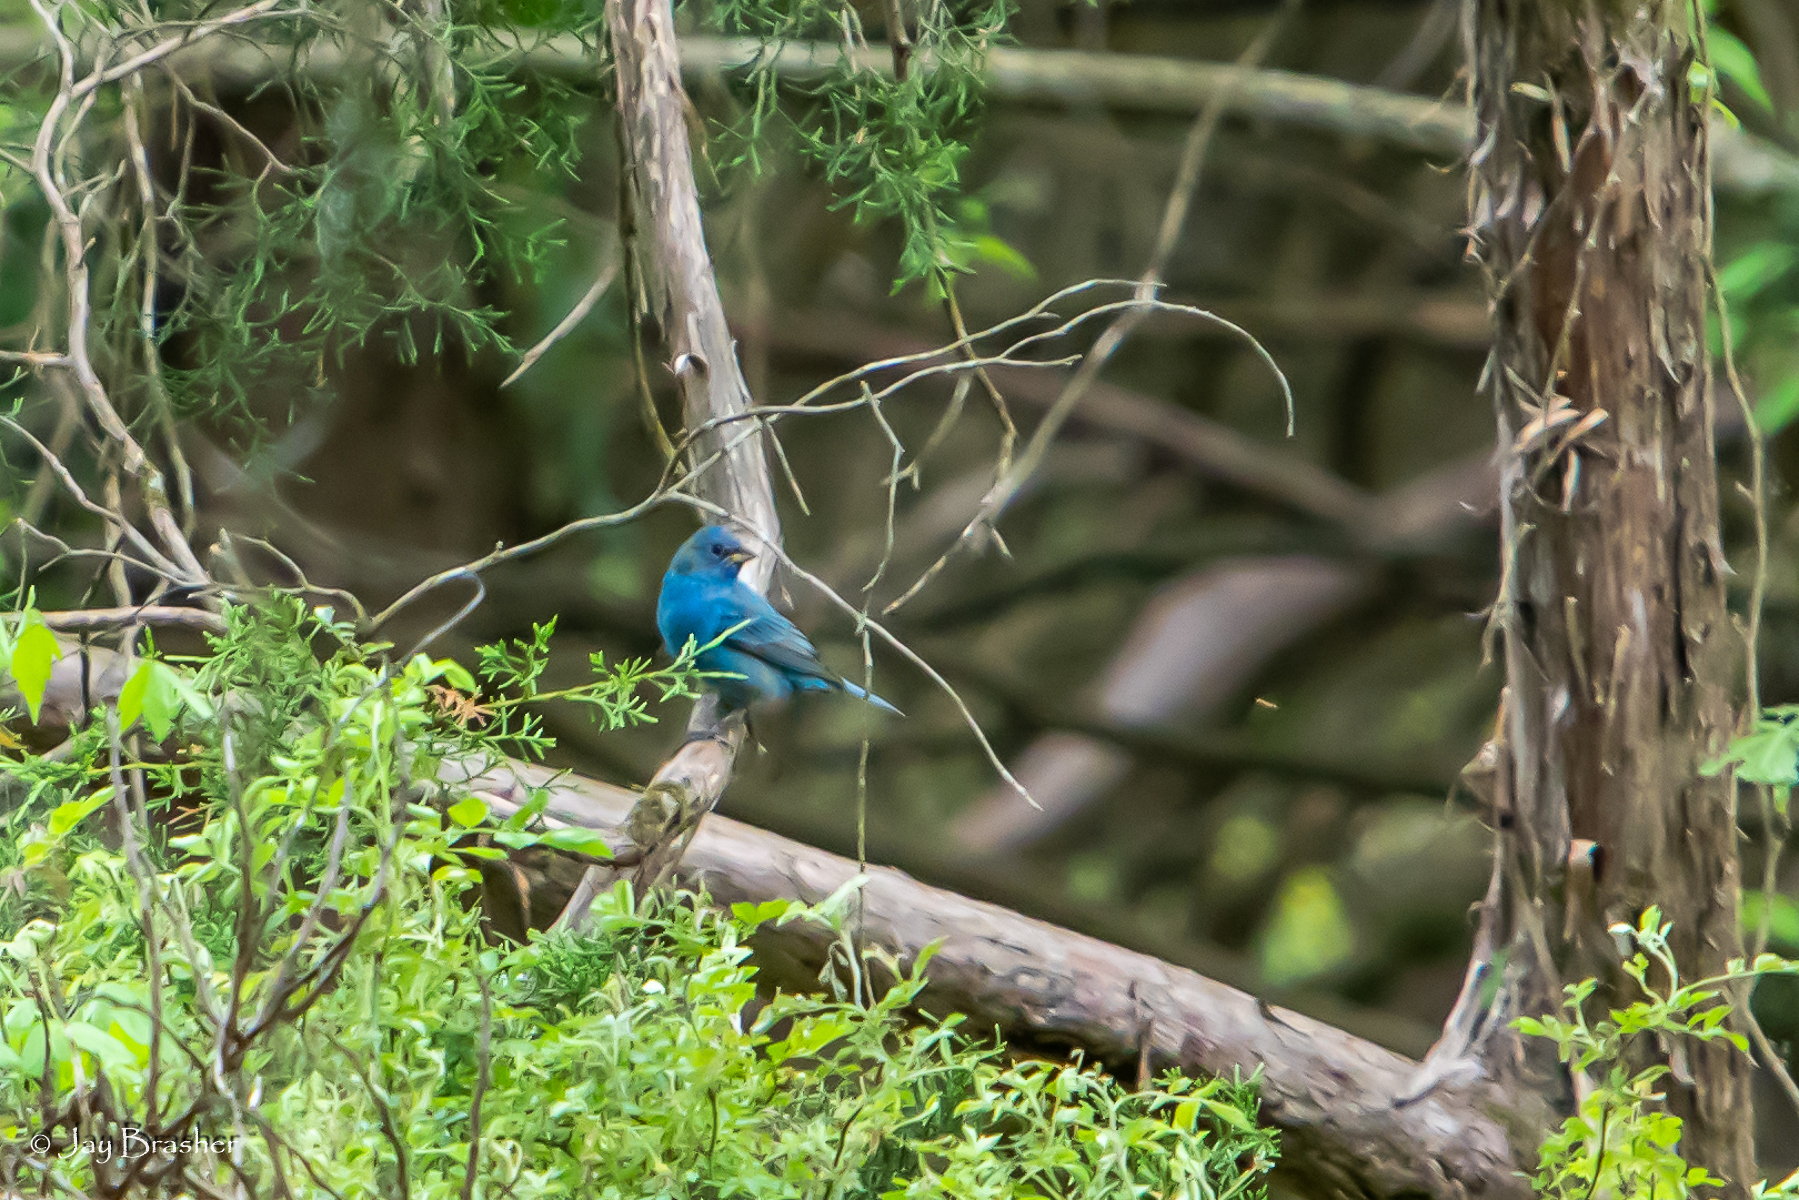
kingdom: Animalia
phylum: Chordata
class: Aves
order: Passeriformes
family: Cardinalidae
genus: Passerina
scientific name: Passerina cyanea
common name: Indigo bunting
